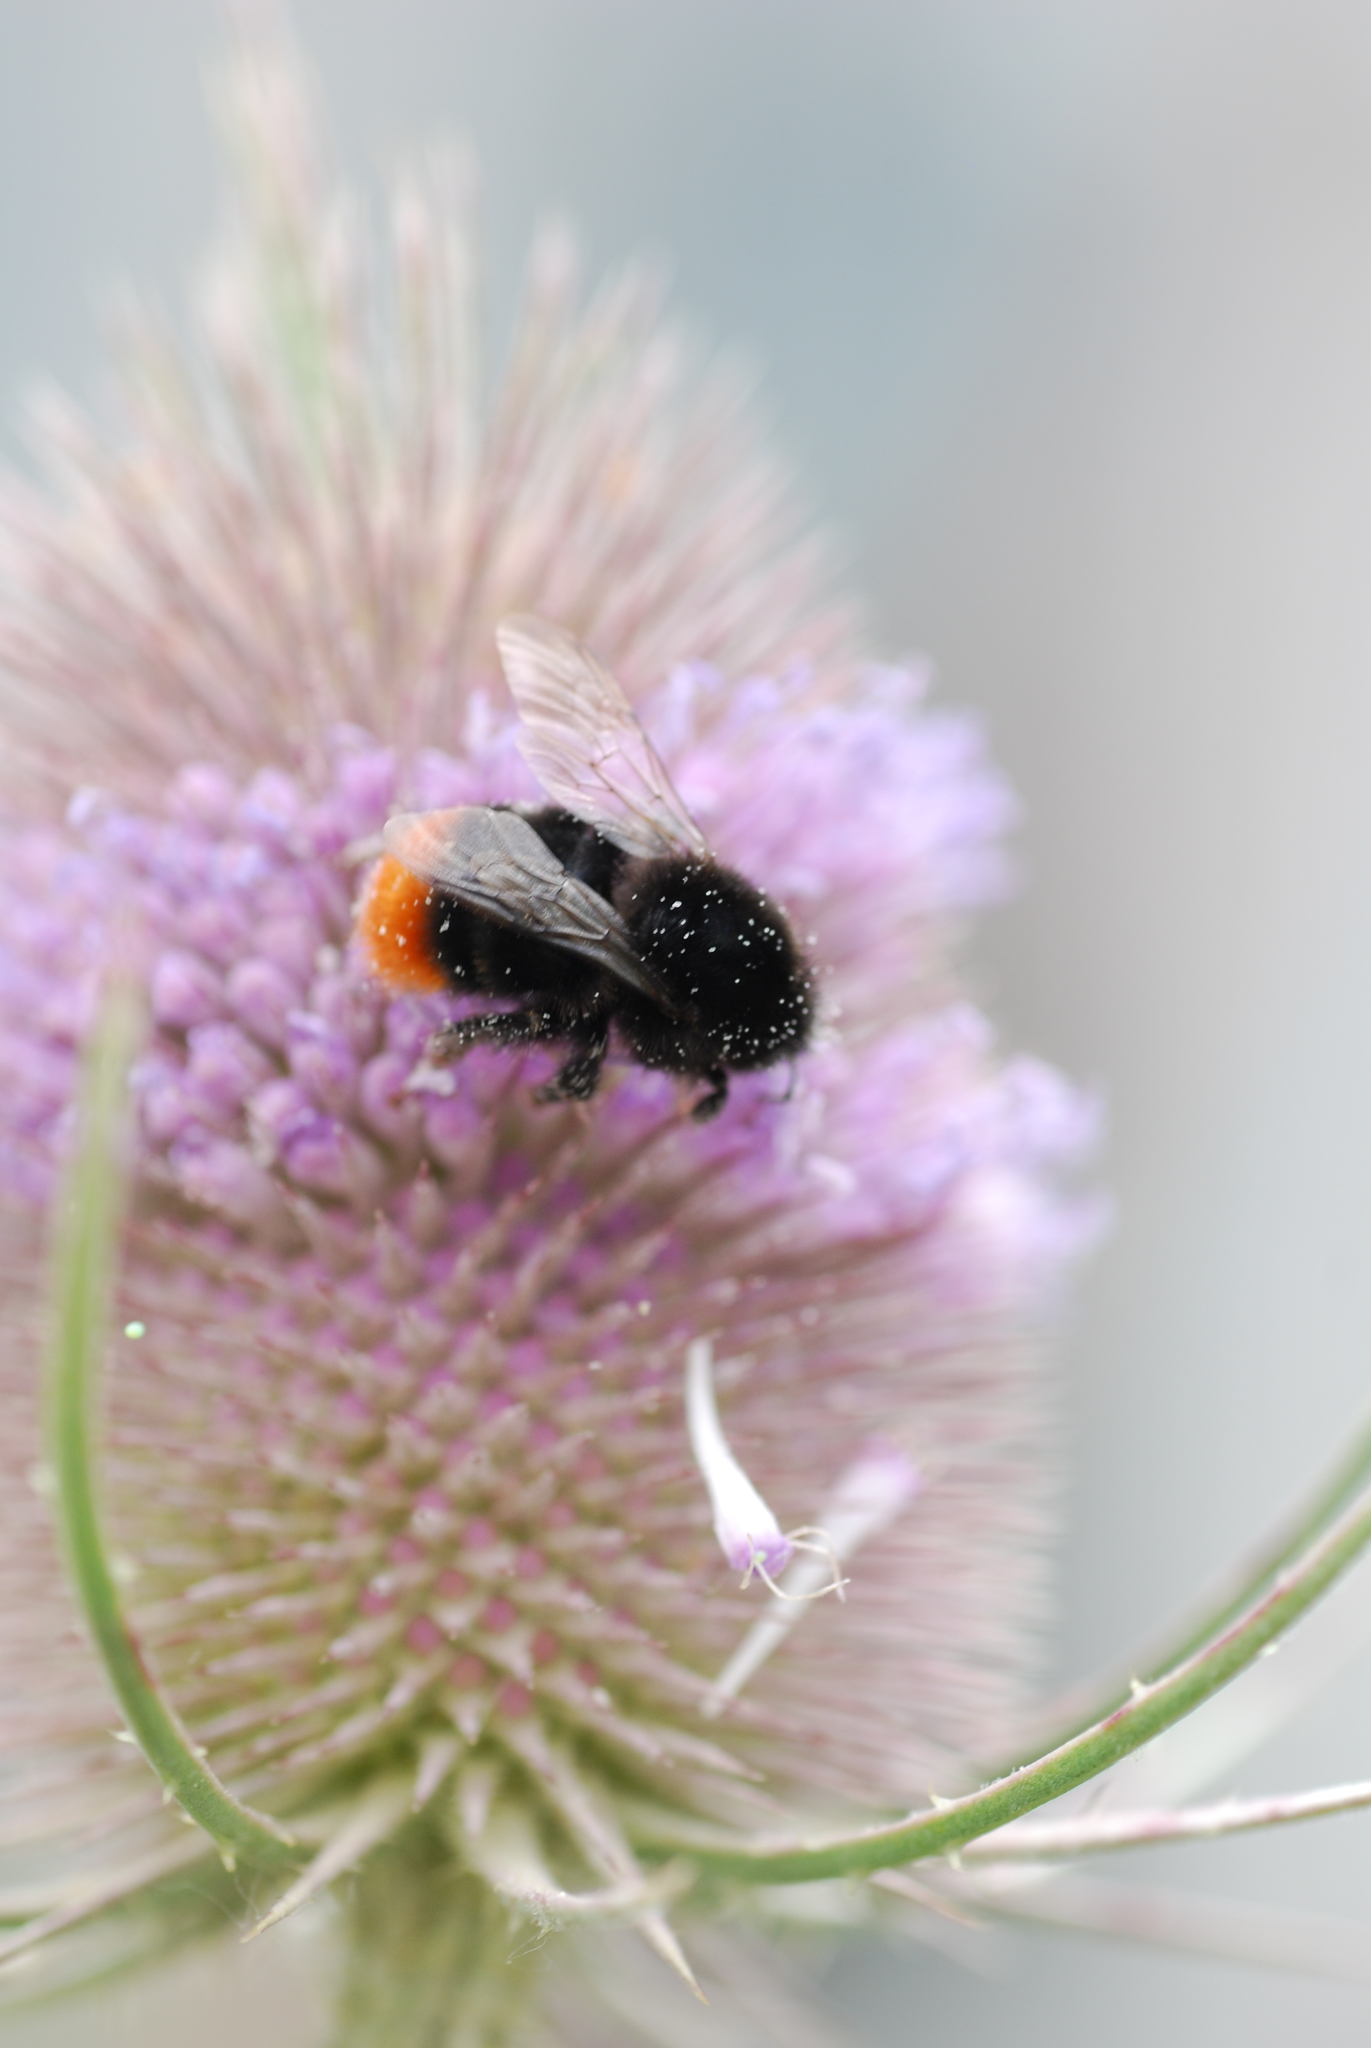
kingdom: Animalia
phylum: Arthropoda
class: Insecta
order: Hymenoptera
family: Apidae
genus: Bombus
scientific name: Bombus lapidarius
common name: Large red-tailed humble-bee
